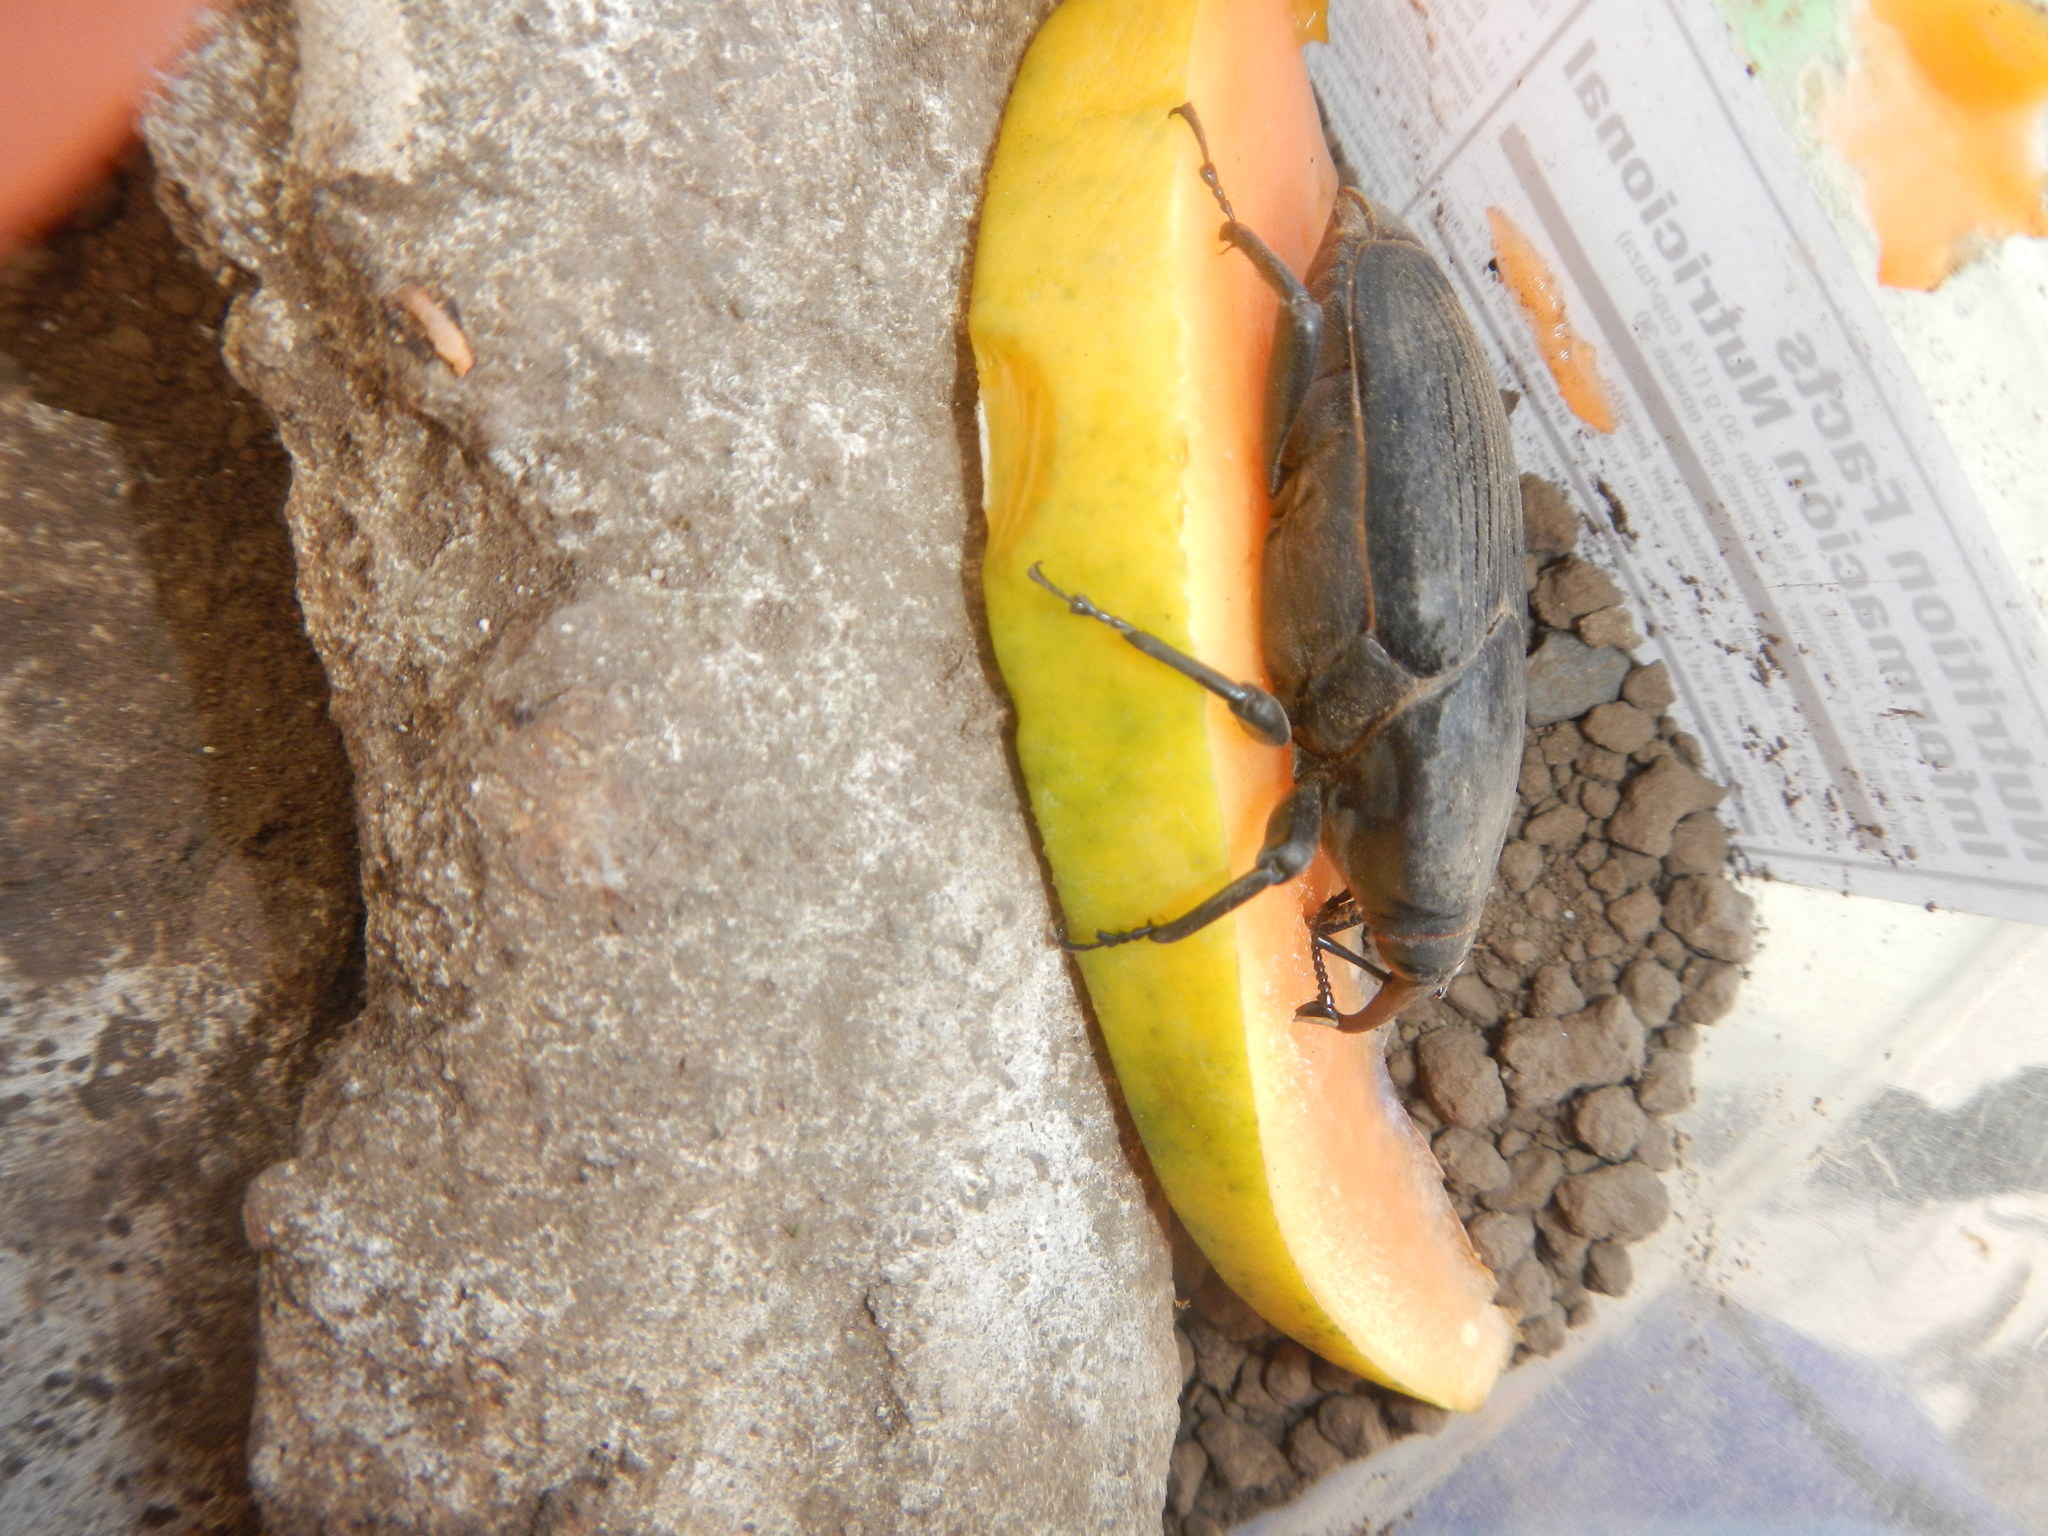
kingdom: Animalia
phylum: Arthropoda
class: Insecta
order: Coleoptera
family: Dryophthoridae
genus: Rhynchophorus
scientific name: Rhynchophorus palmarum
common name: Palm weevil
